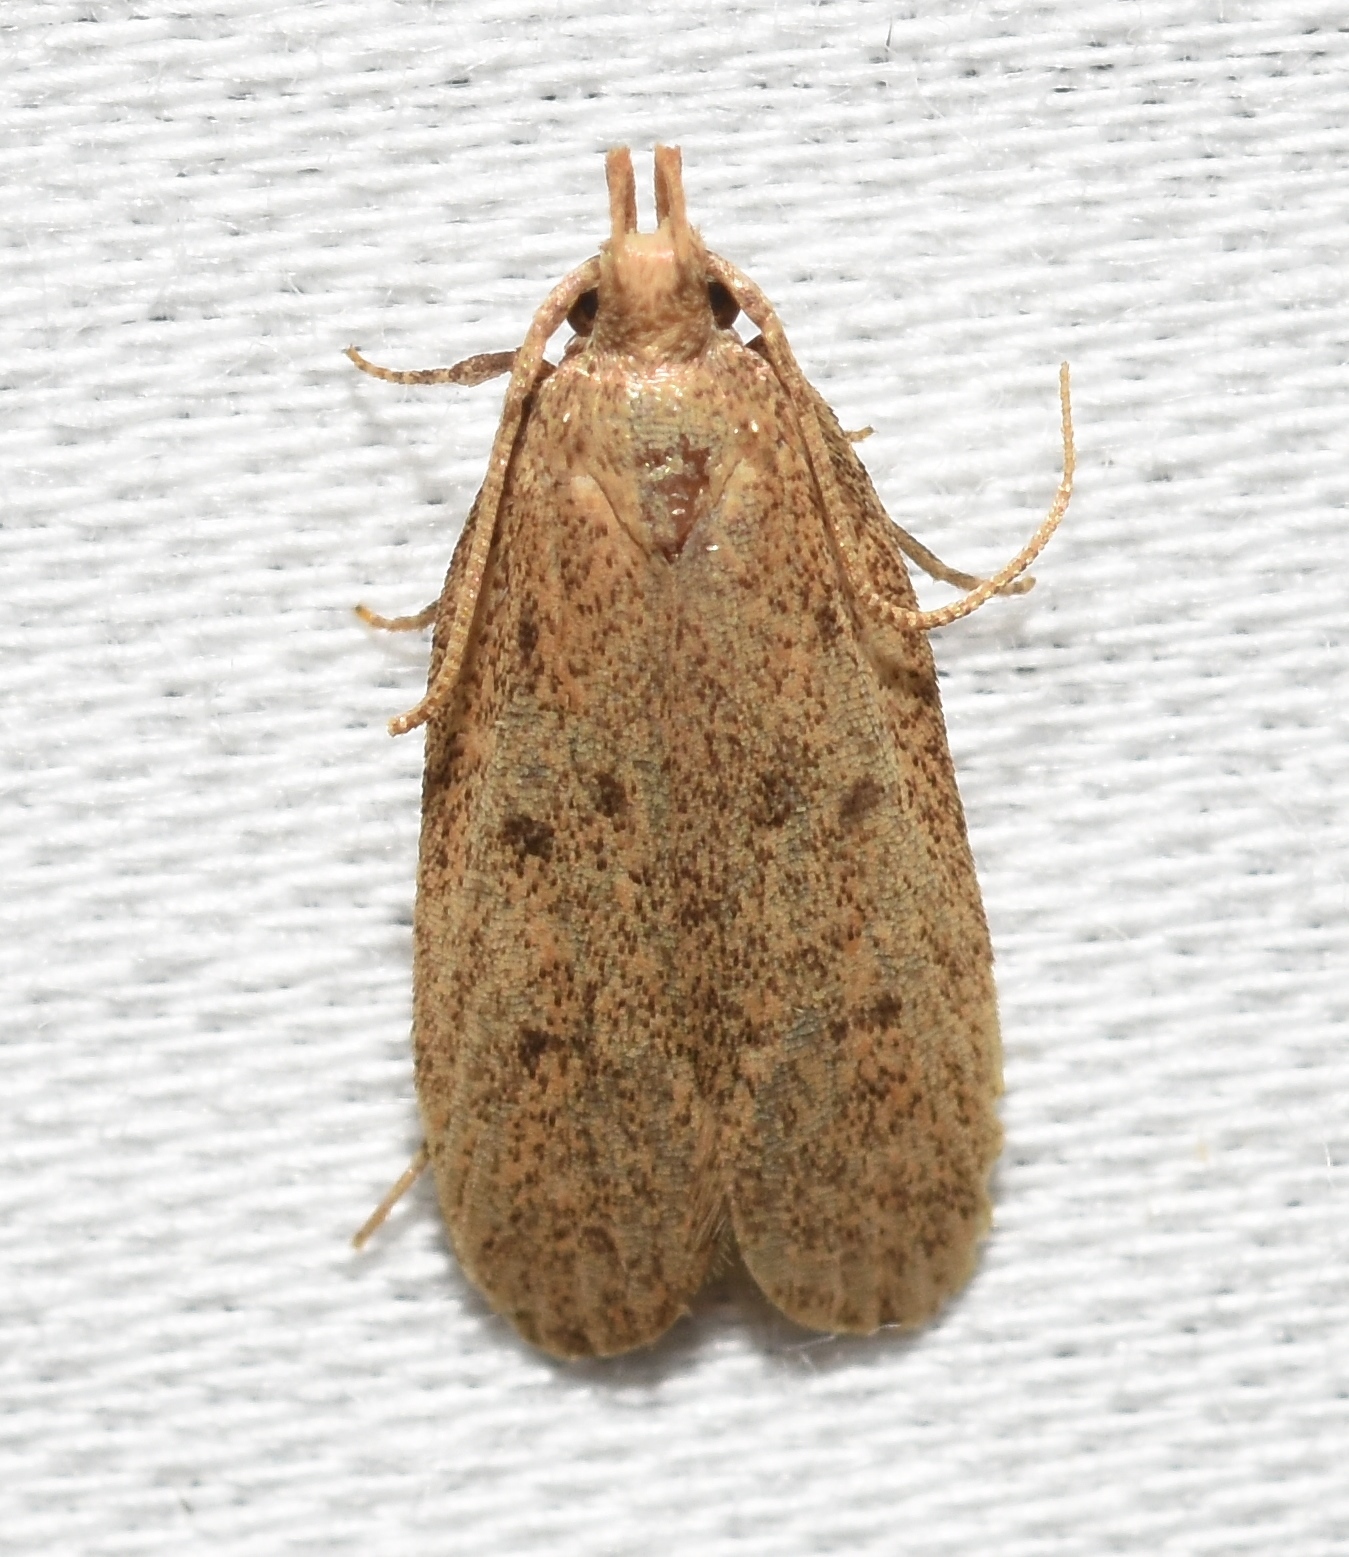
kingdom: Animalia
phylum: Arthropoda
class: Insecta
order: Lepidoptera
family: Autostichidae
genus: Glyphidocera
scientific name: Glyphidocera juniperella
